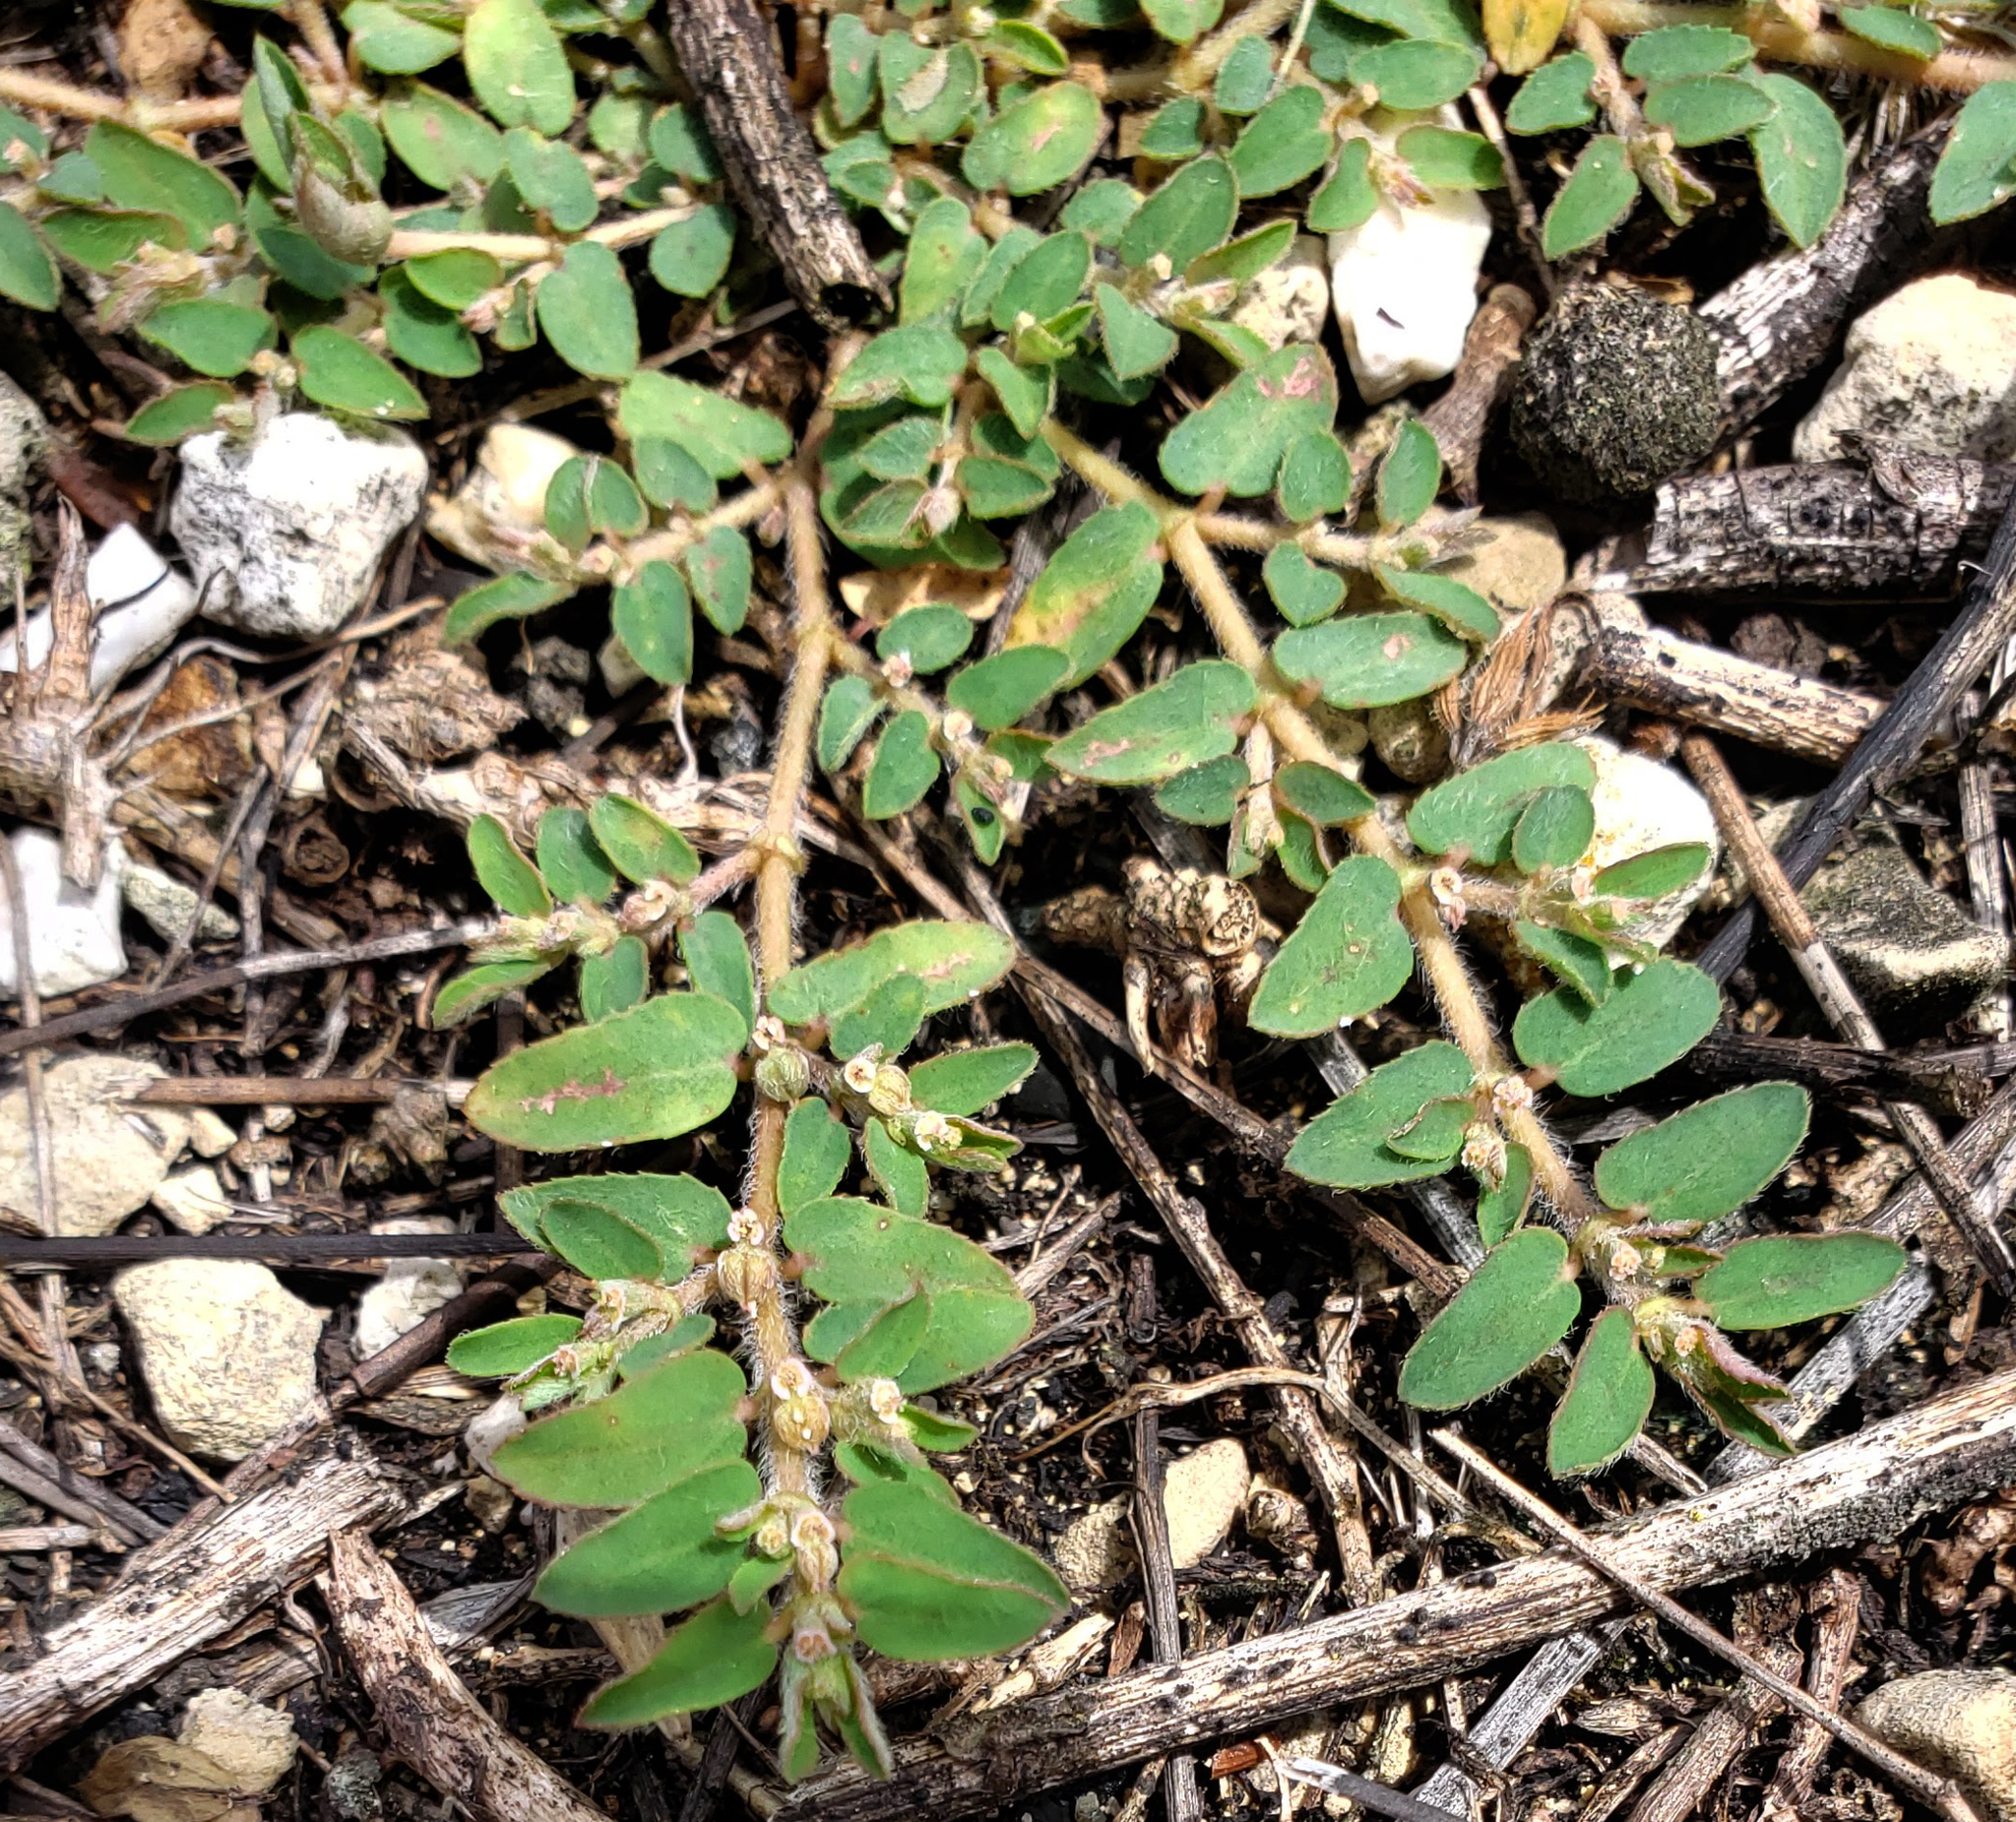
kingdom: Plantae
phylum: Tracheophyta
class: Magnoliopsida
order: Malpighiales
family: Euphorbiaceae
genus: Euphorbia
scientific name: Euphorbia maculata
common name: Spotted spurge
